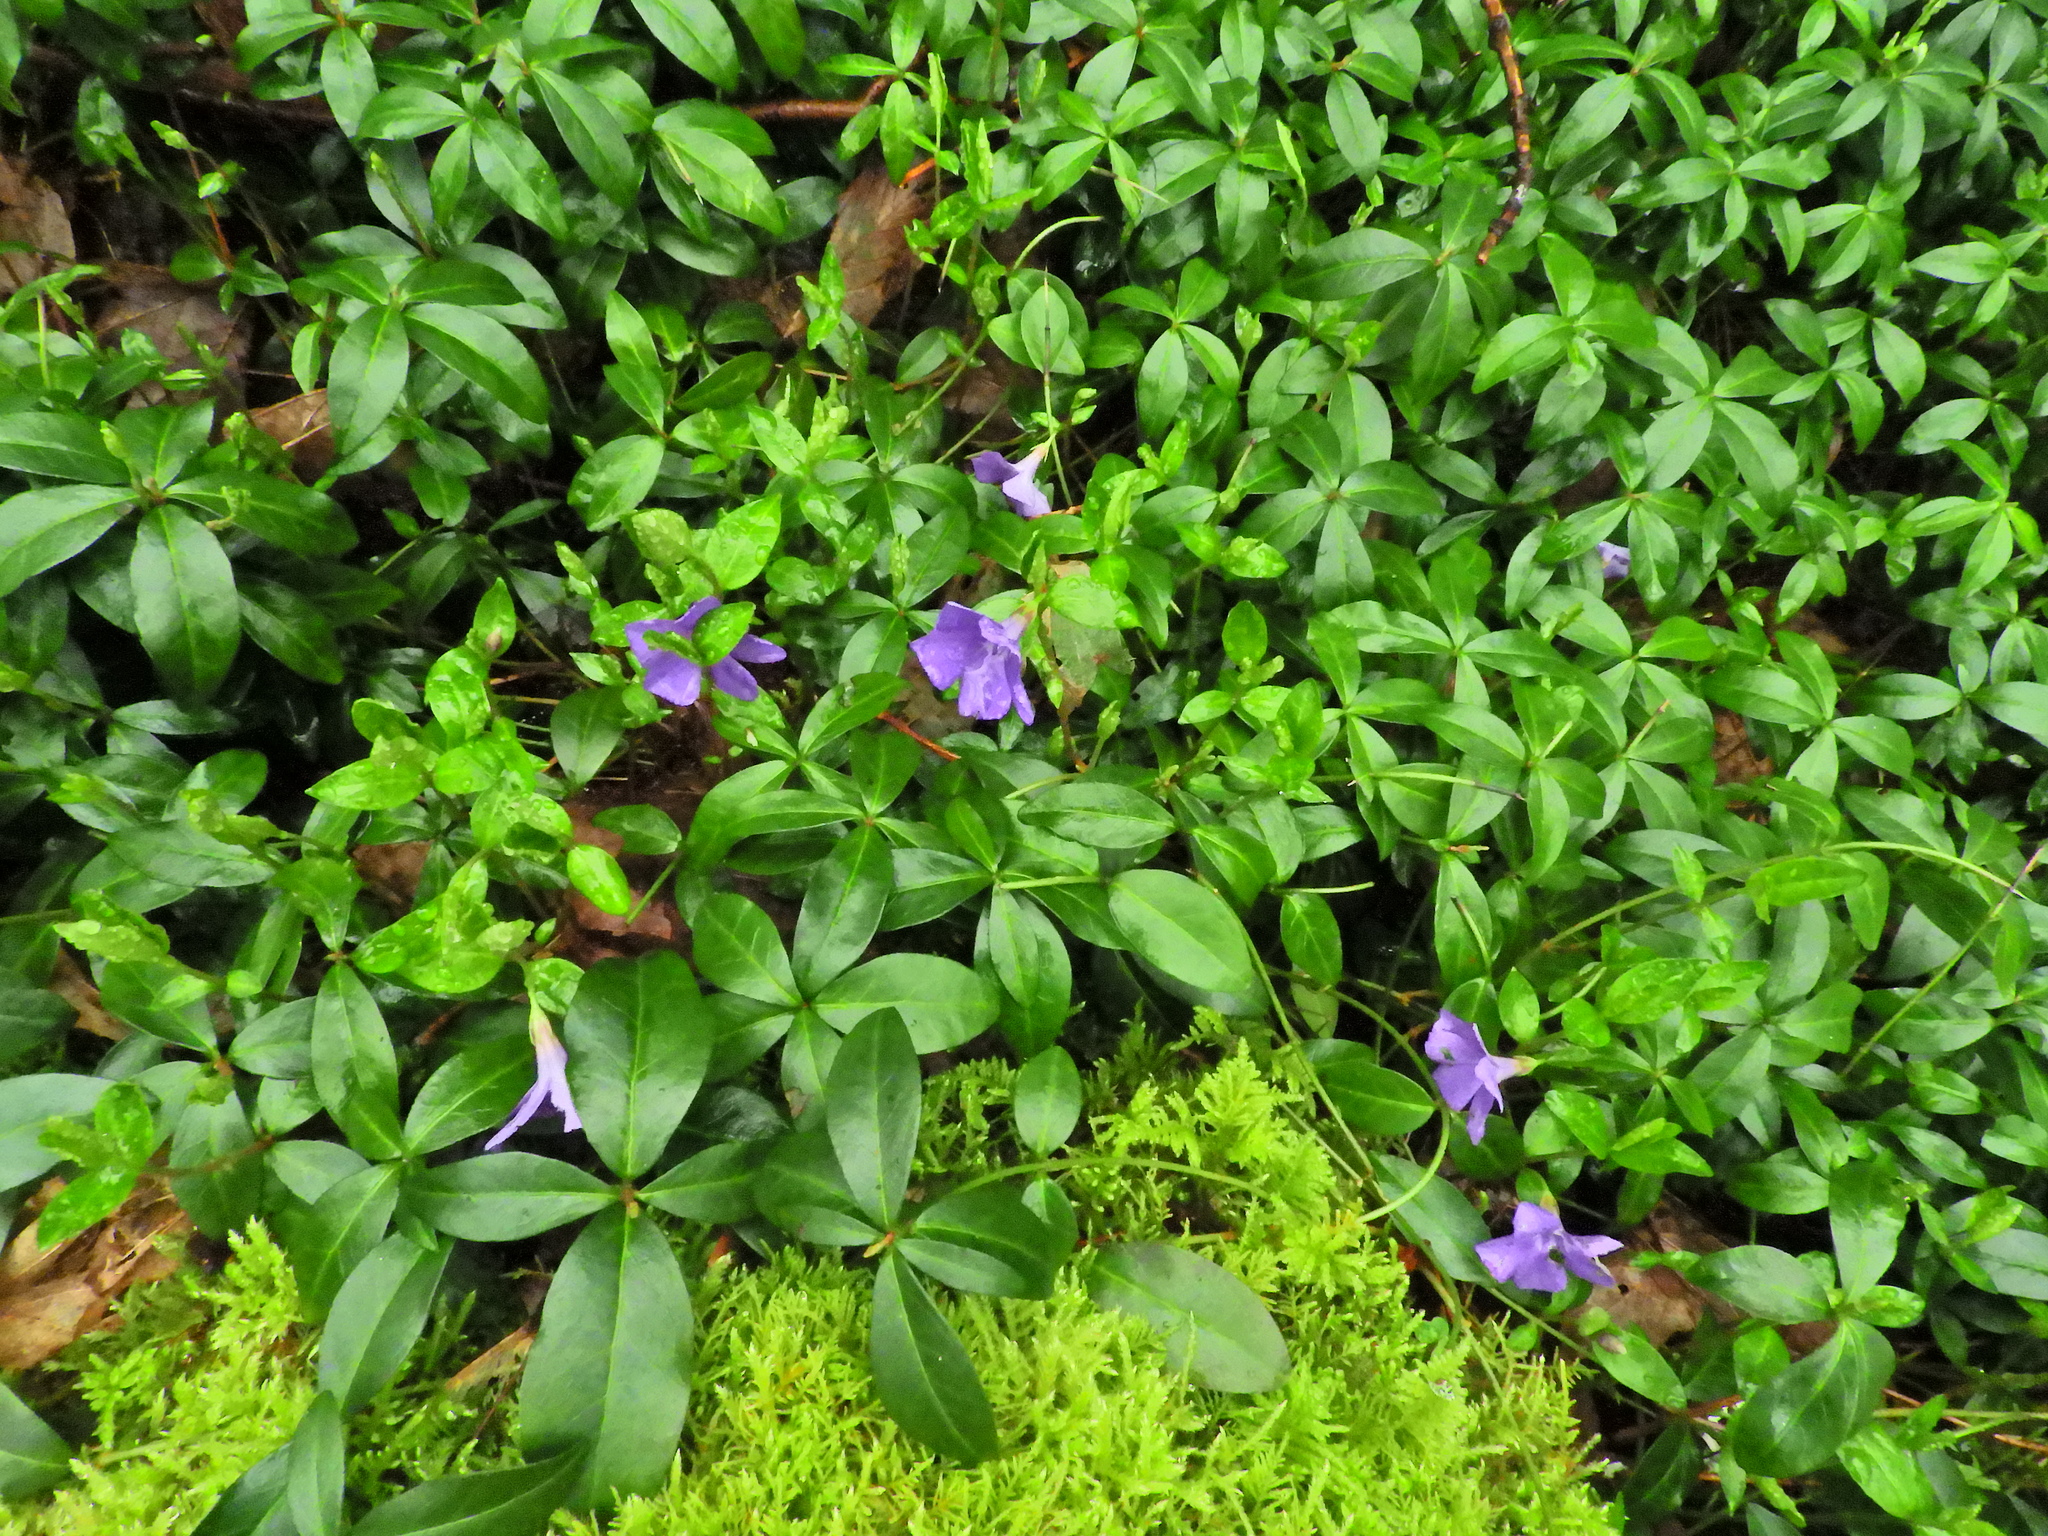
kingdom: Plantae
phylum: Tracheophyta
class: Magnoliopsida
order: Gentianales
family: Apocynaceae
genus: Vinca
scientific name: Vinca minor
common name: Lesser periwinkle
